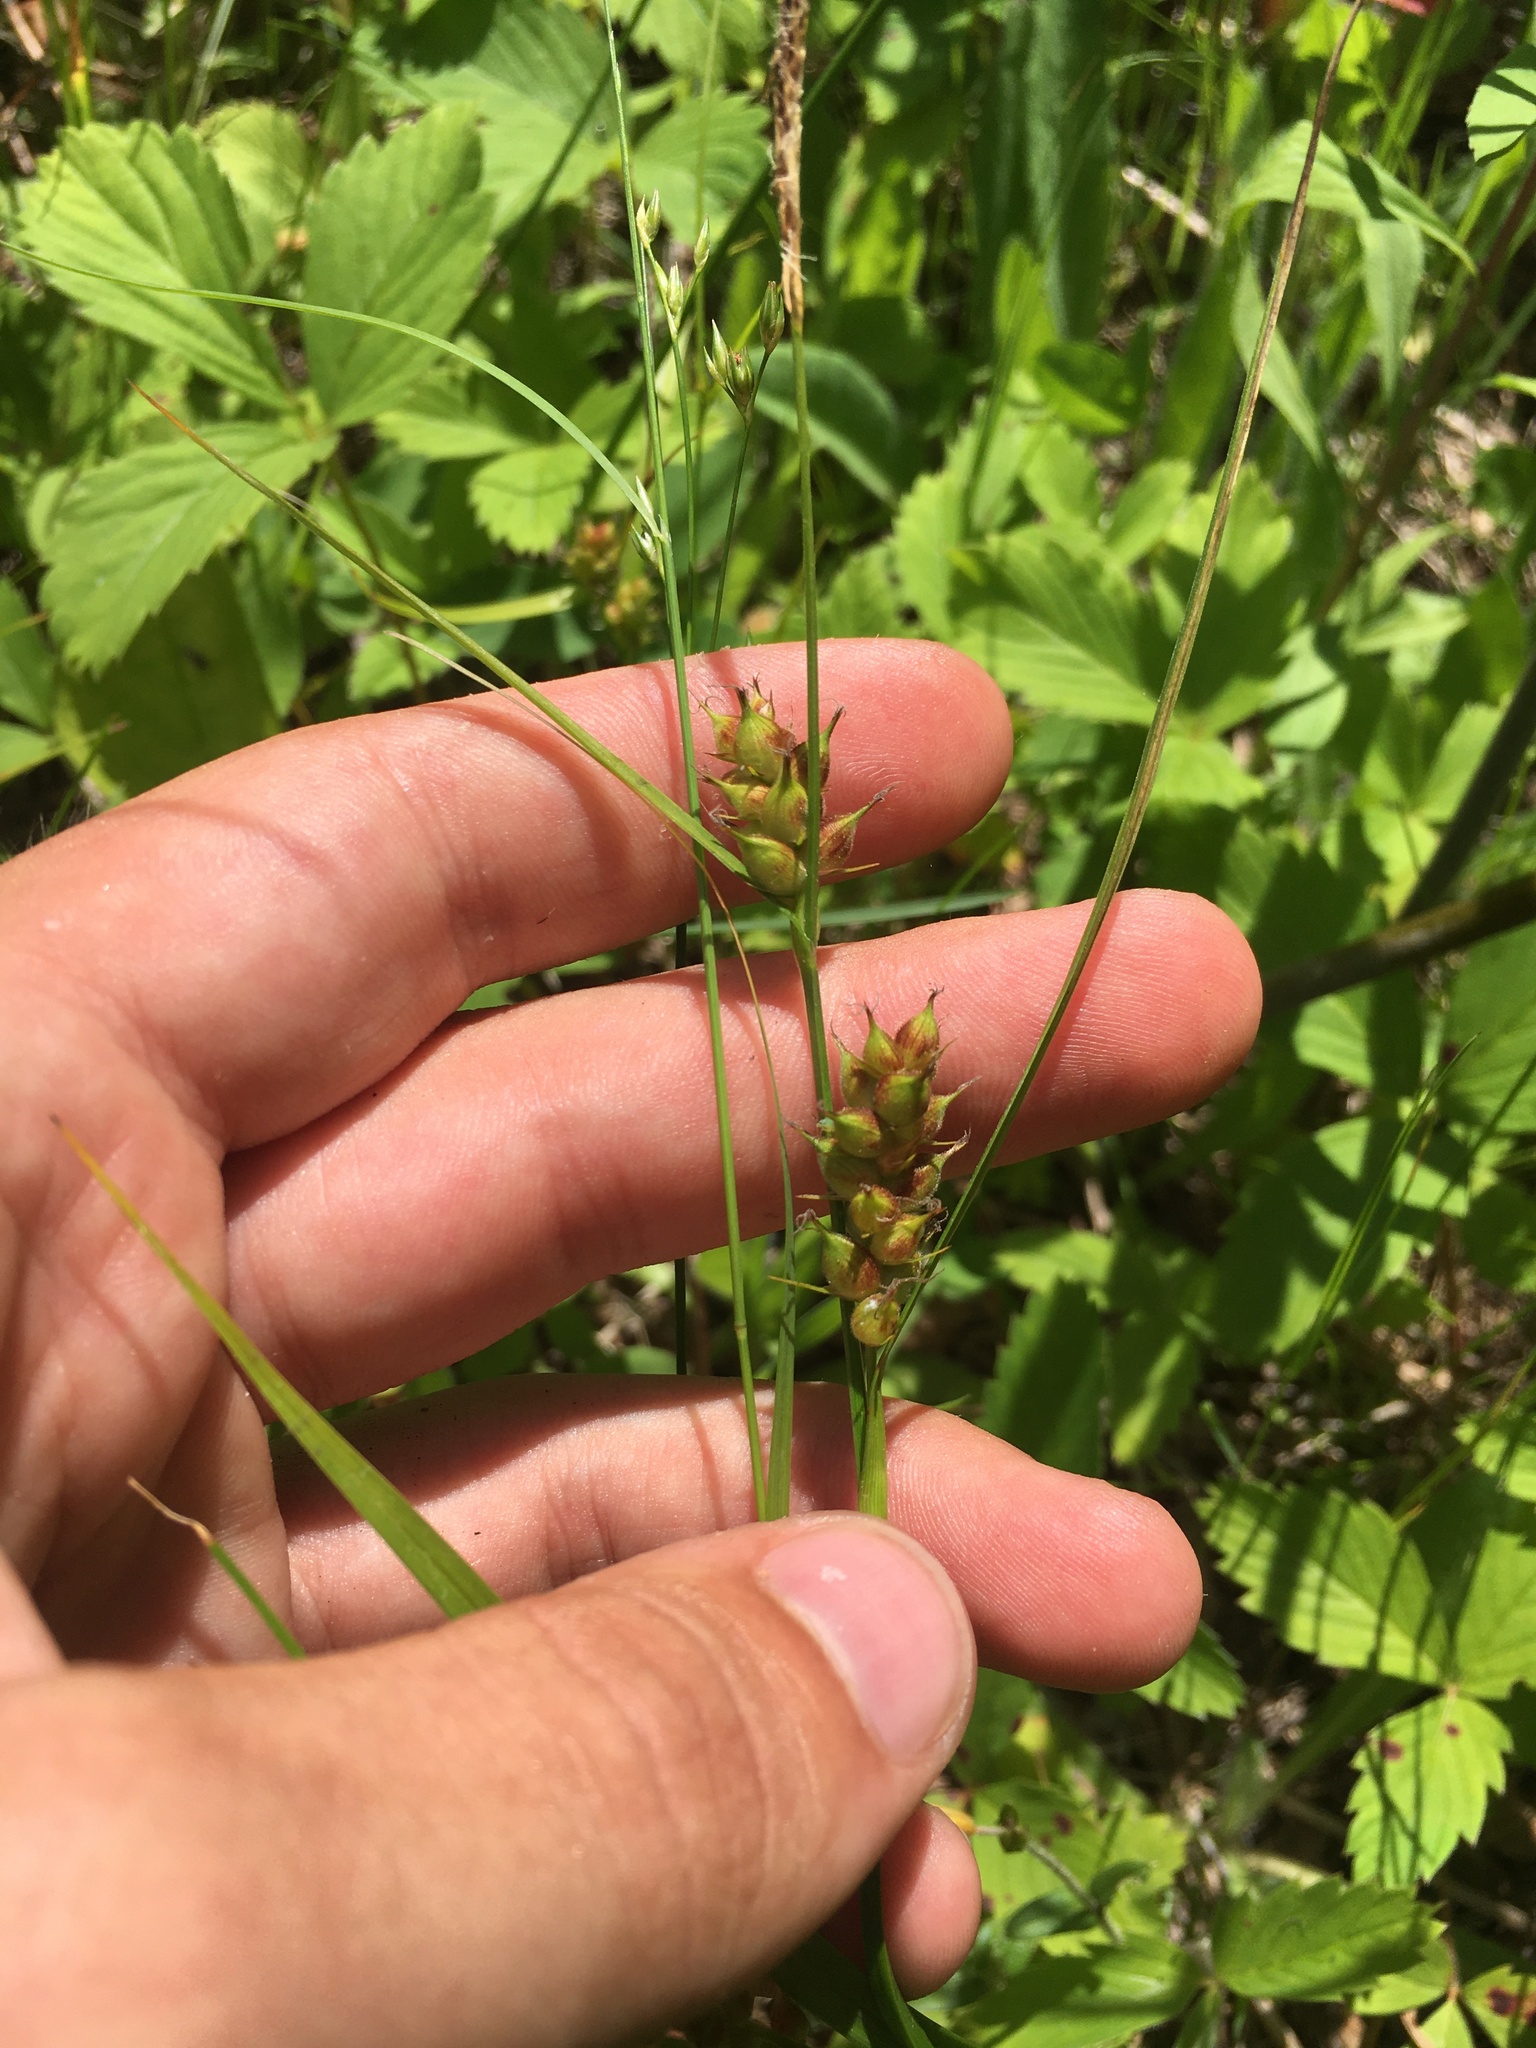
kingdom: Plantae
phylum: Tracheophyta
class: Liliopsida
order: Poales
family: Cyperaceae
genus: Carex
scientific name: Carex houghtoniana
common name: Houghton's sedge
